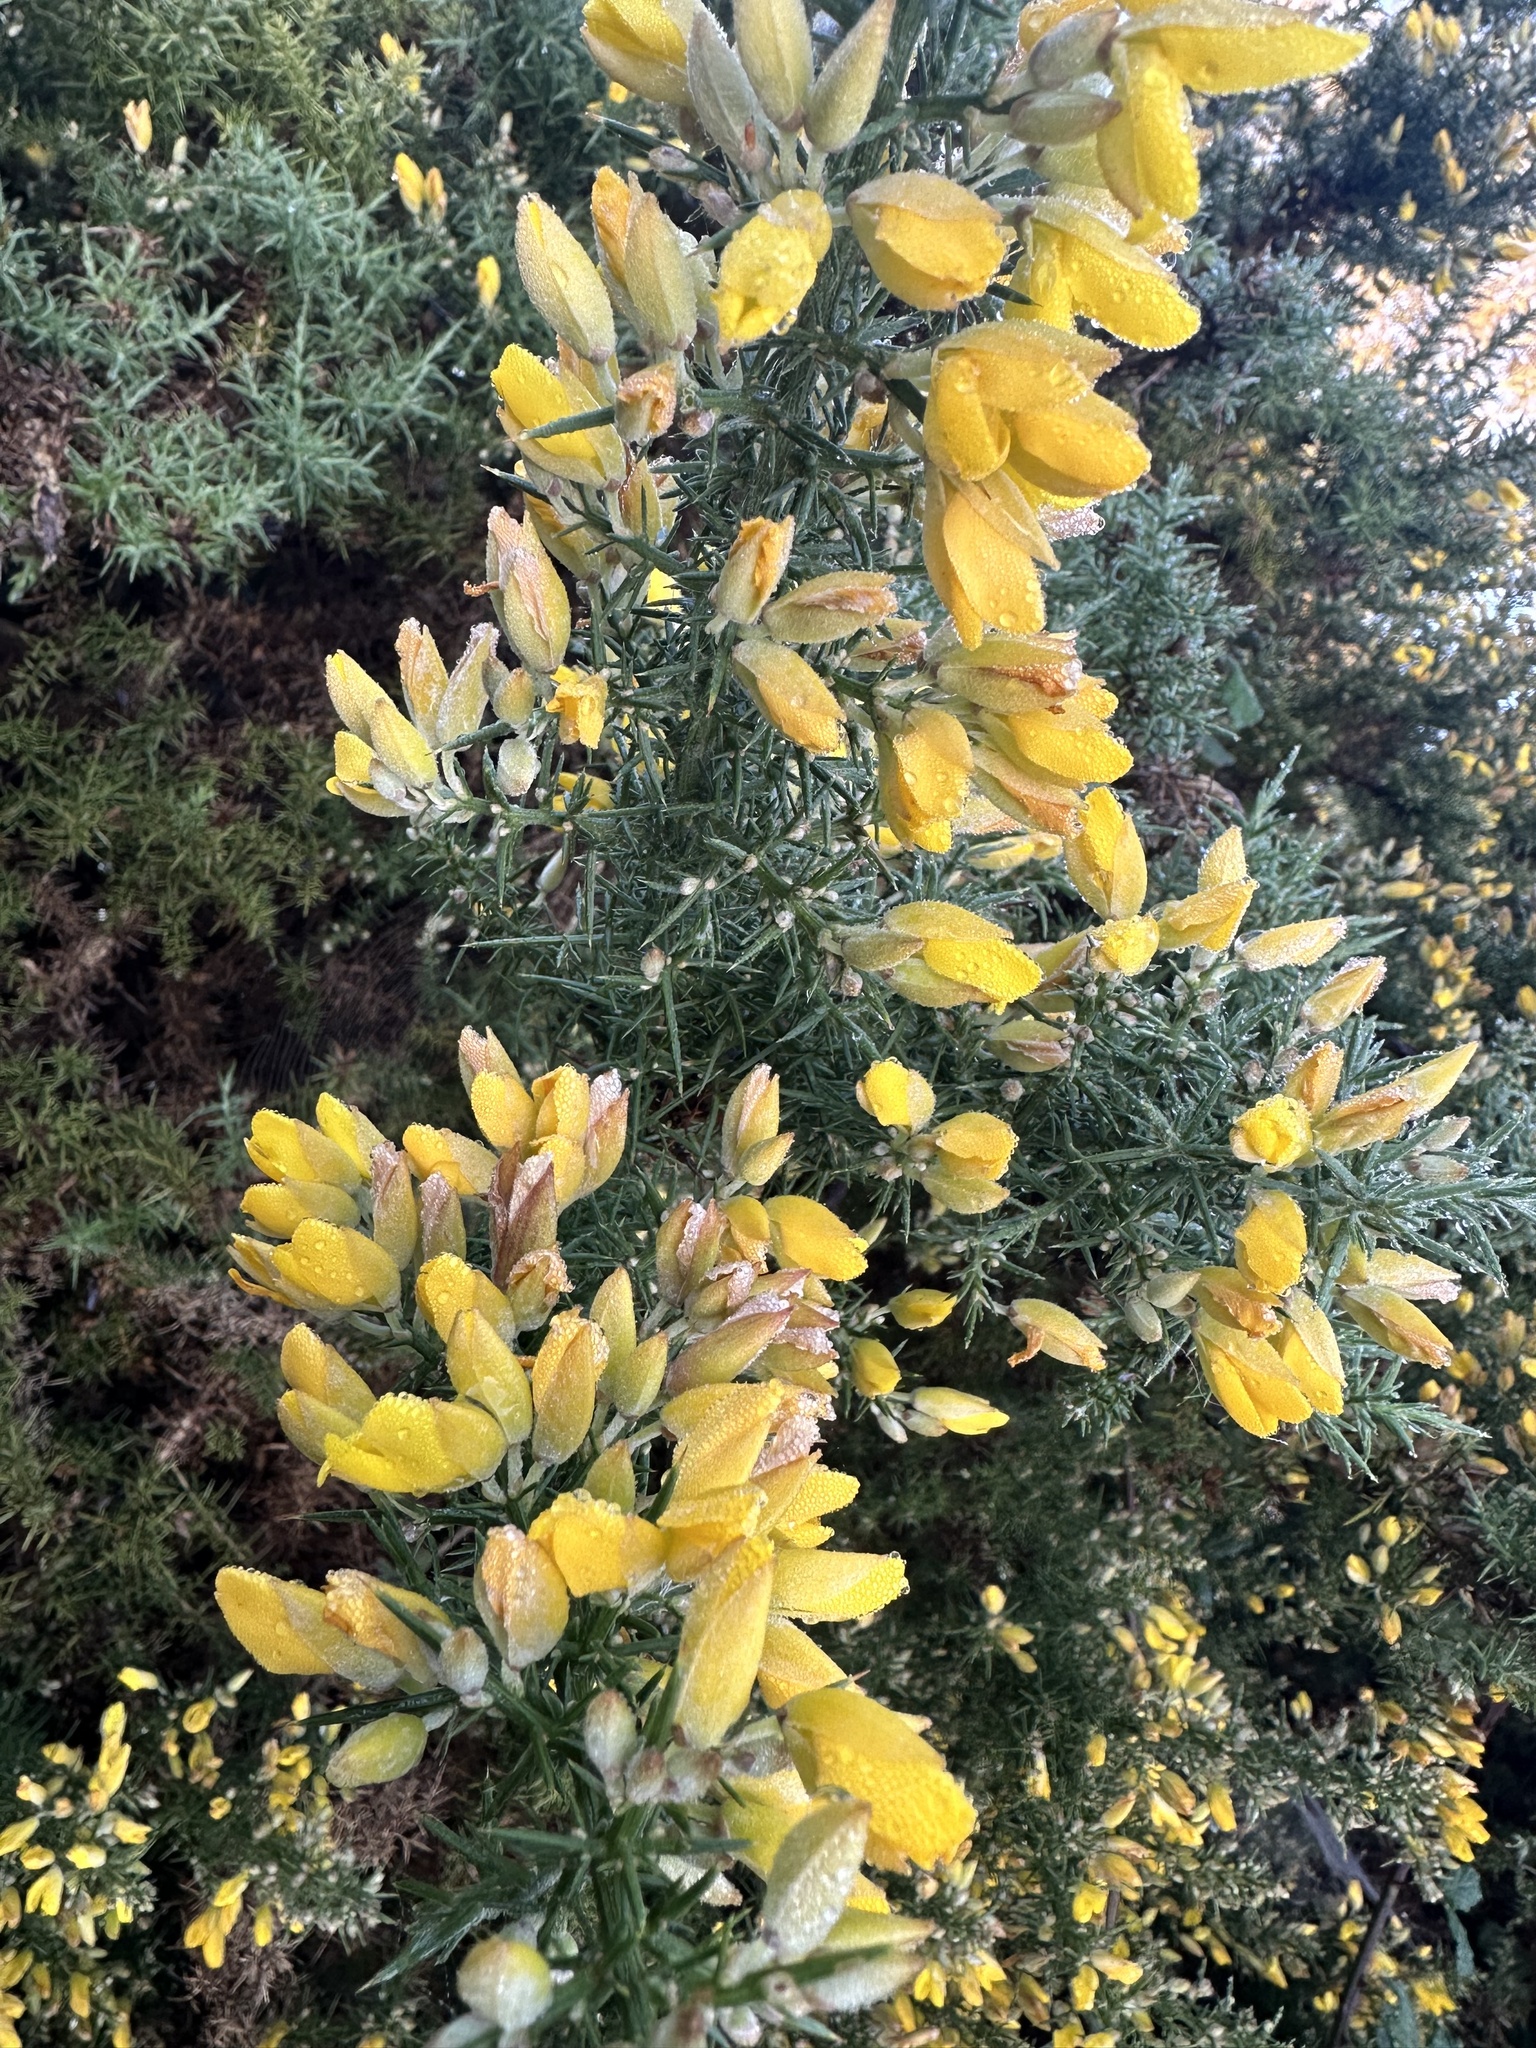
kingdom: Plantae
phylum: Tracheophyta
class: Magnoliopsida
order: Fabales
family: Fabaceae
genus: Ulex
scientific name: Ulex europaeus
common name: Common gorse
